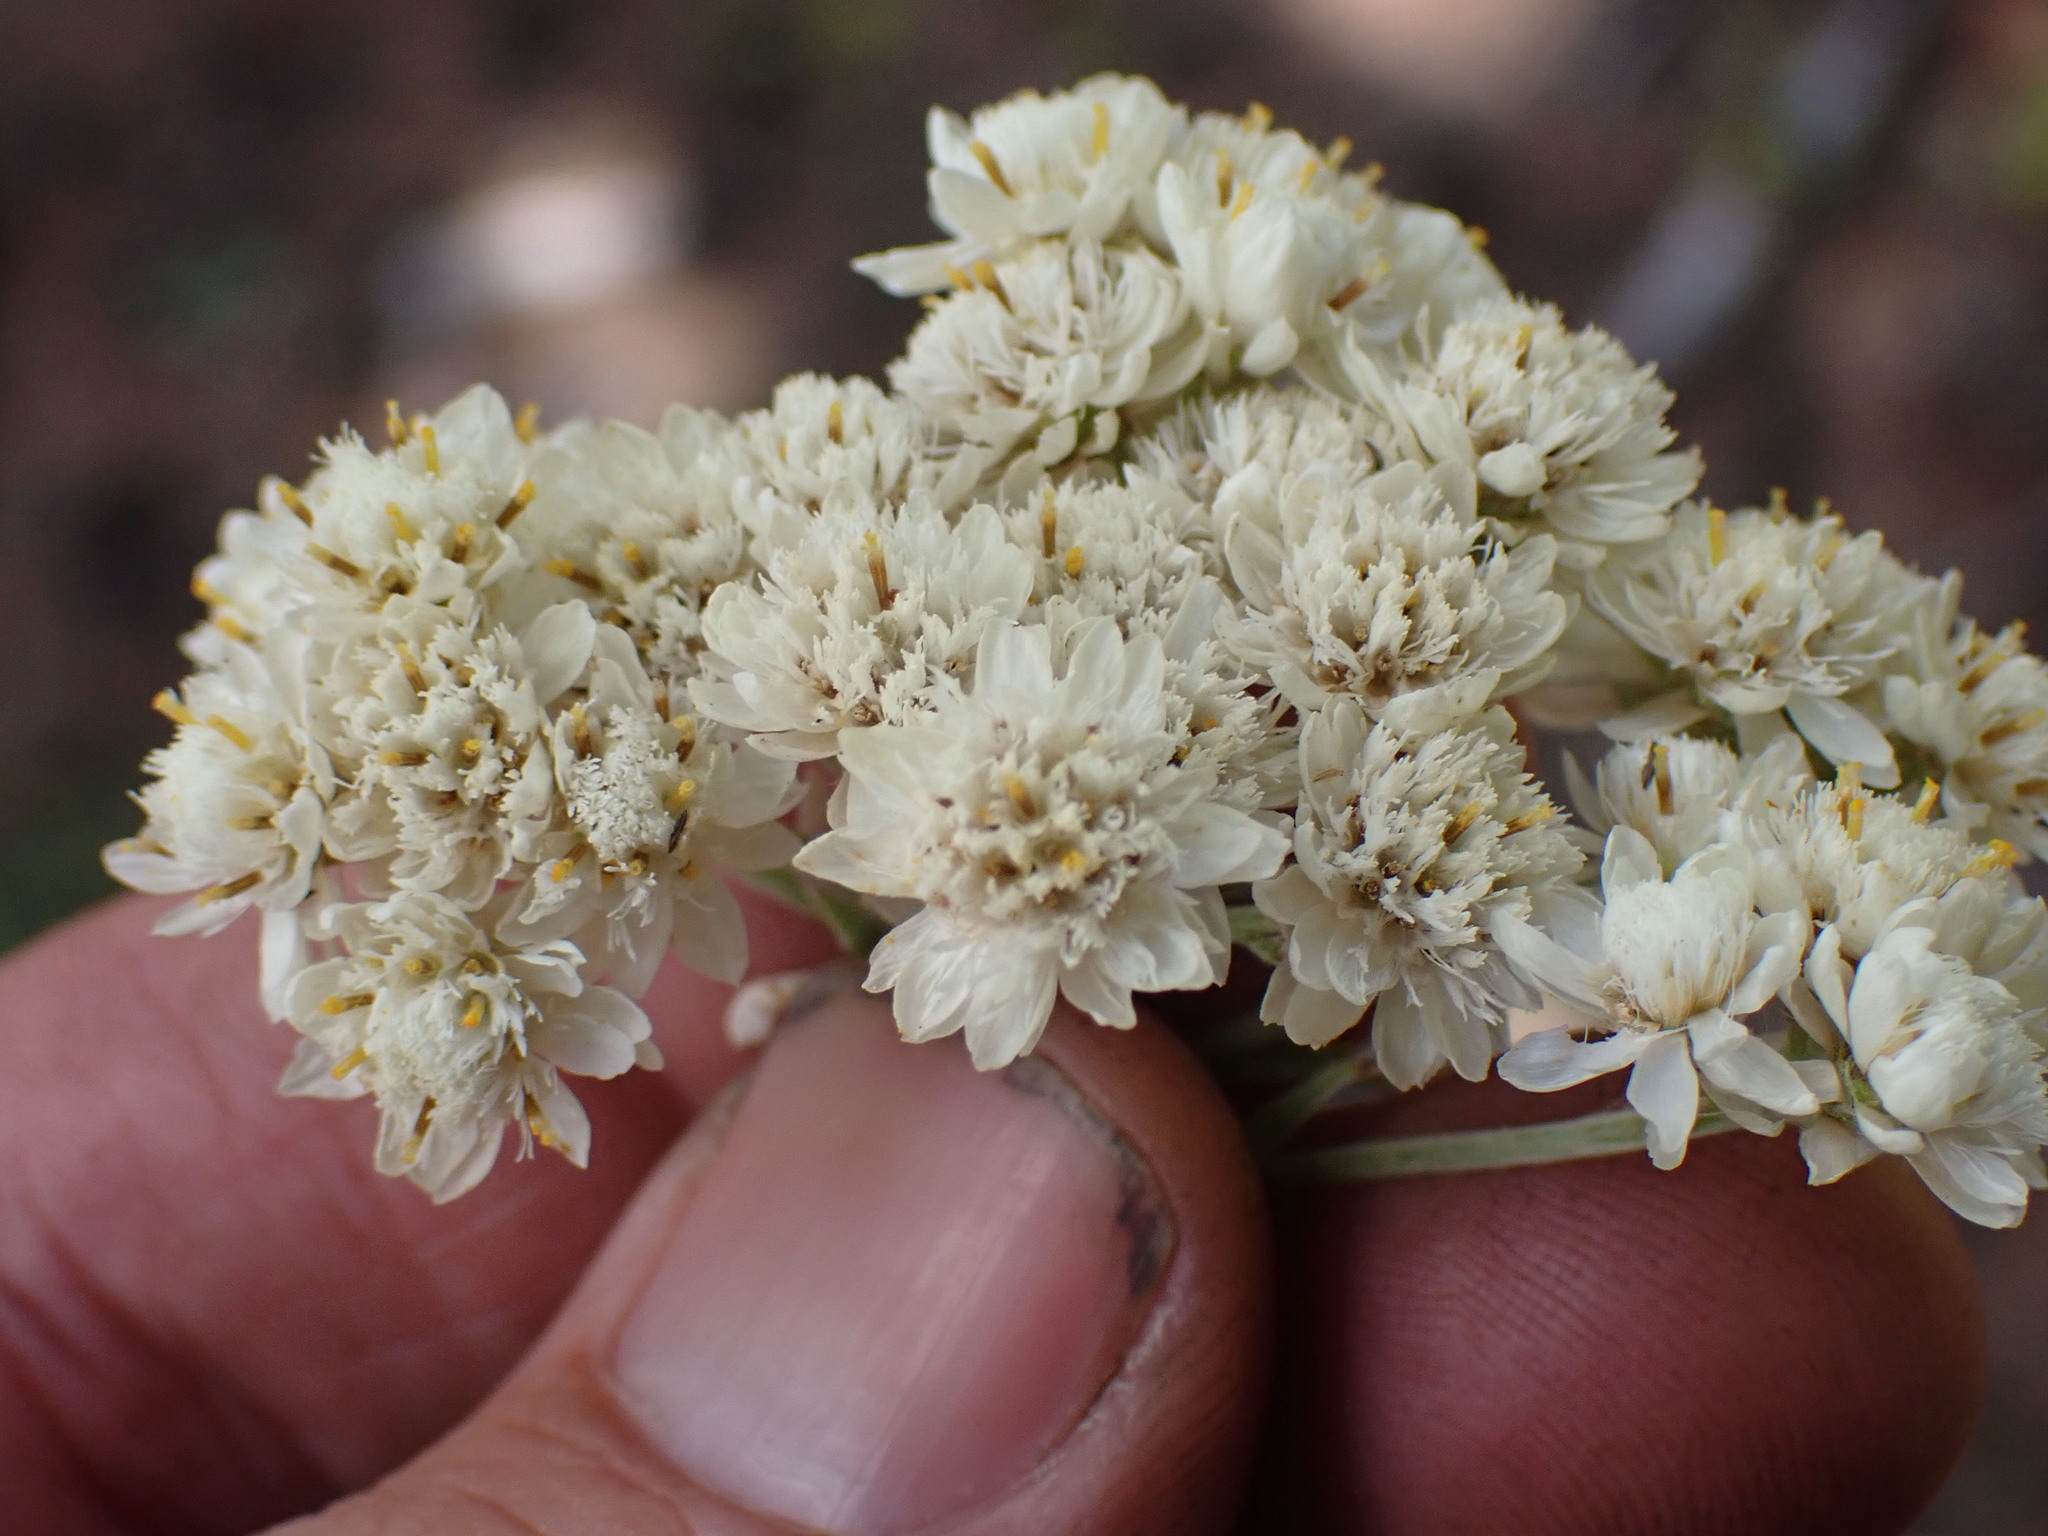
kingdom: Plantae
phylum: Tracheophyta
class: Magnoliopsida
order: Asterales
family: Asteraceae
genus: Anaphalis
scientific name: Anaphalis margaritacea
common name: Pearly everlasting
